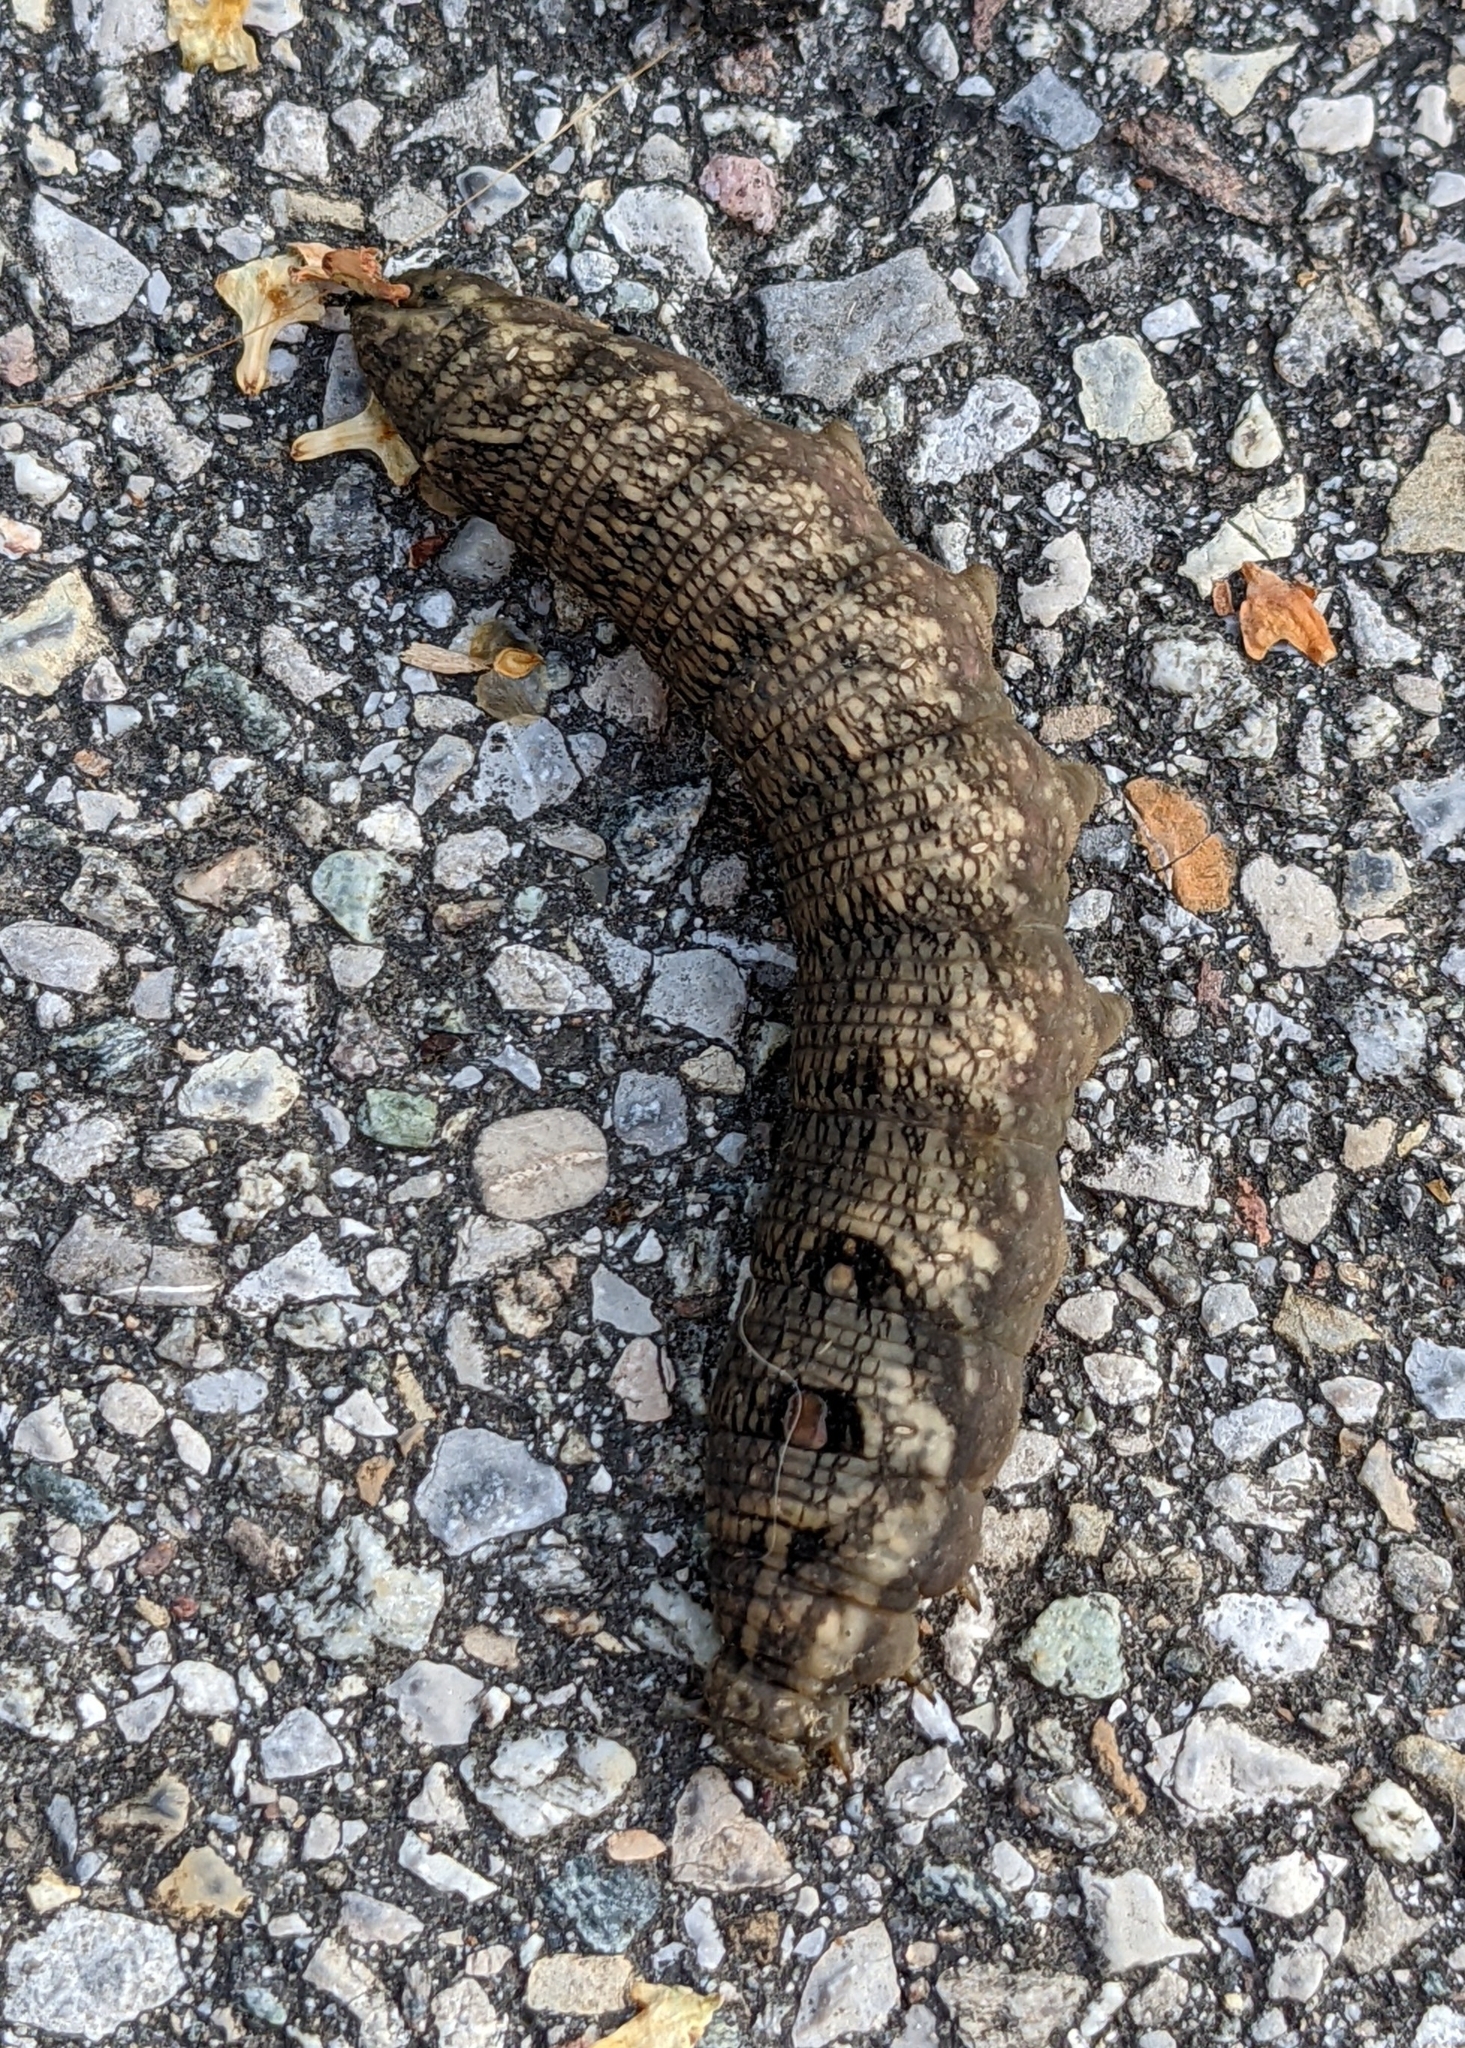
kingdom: Animalia
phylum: Arthropoda
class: Insecta
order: Lepidoptera
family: Sphingidae
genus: Deilephila
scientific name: Deilephila porcellus
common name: Small elephant hawk-moth
